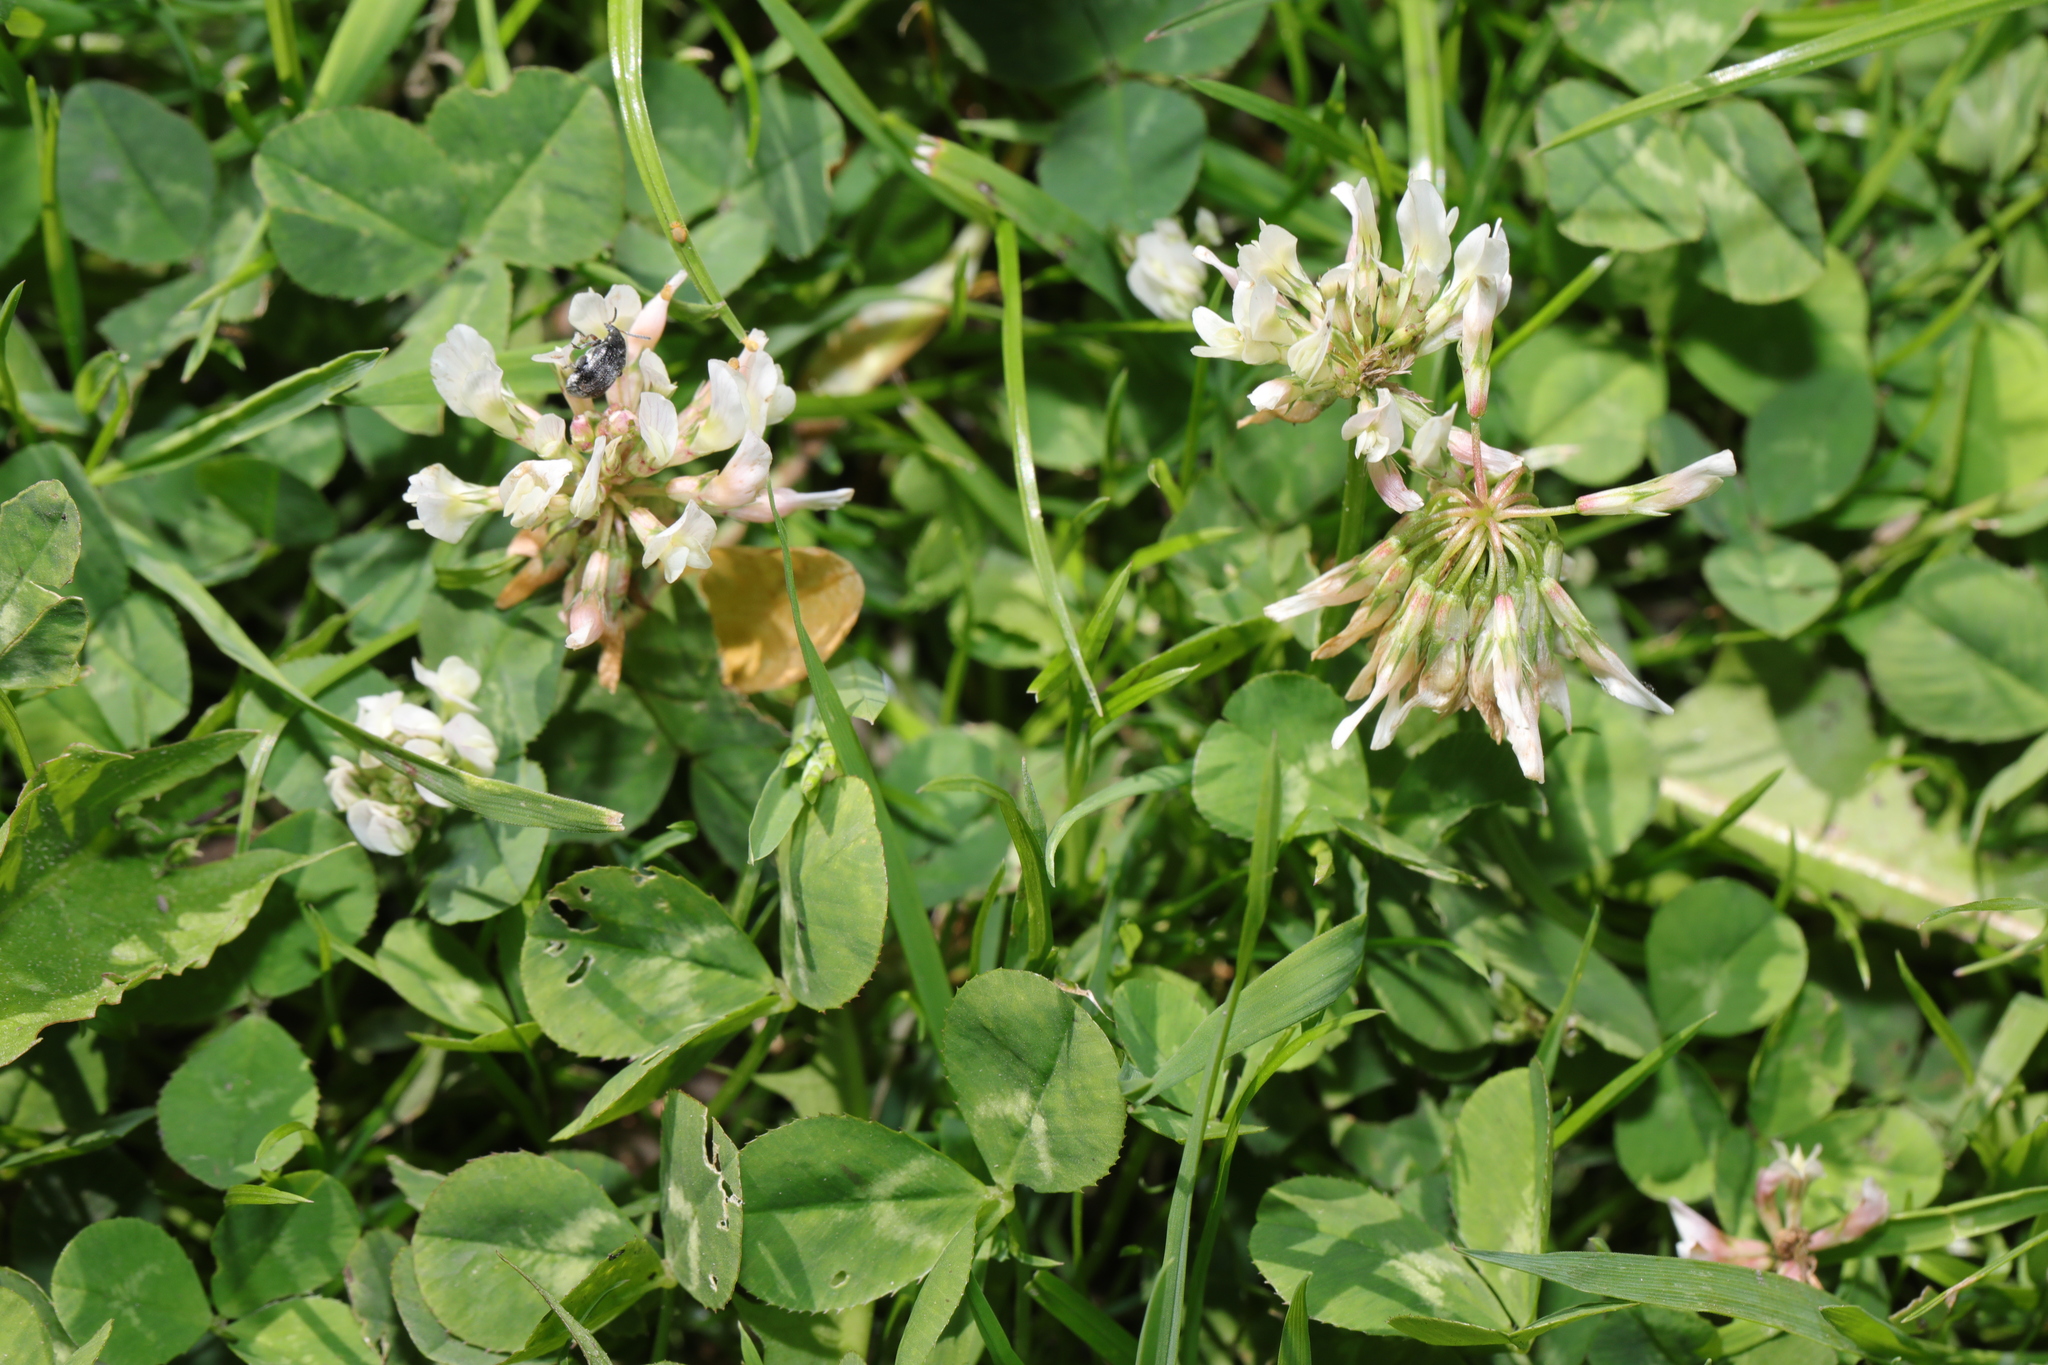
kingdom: Plantae
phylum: Tracheophyta
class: Magnoliopsida
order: Fabales
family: Fabaceae
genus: Trifolium
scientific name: Trifolium repens
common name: White clover
